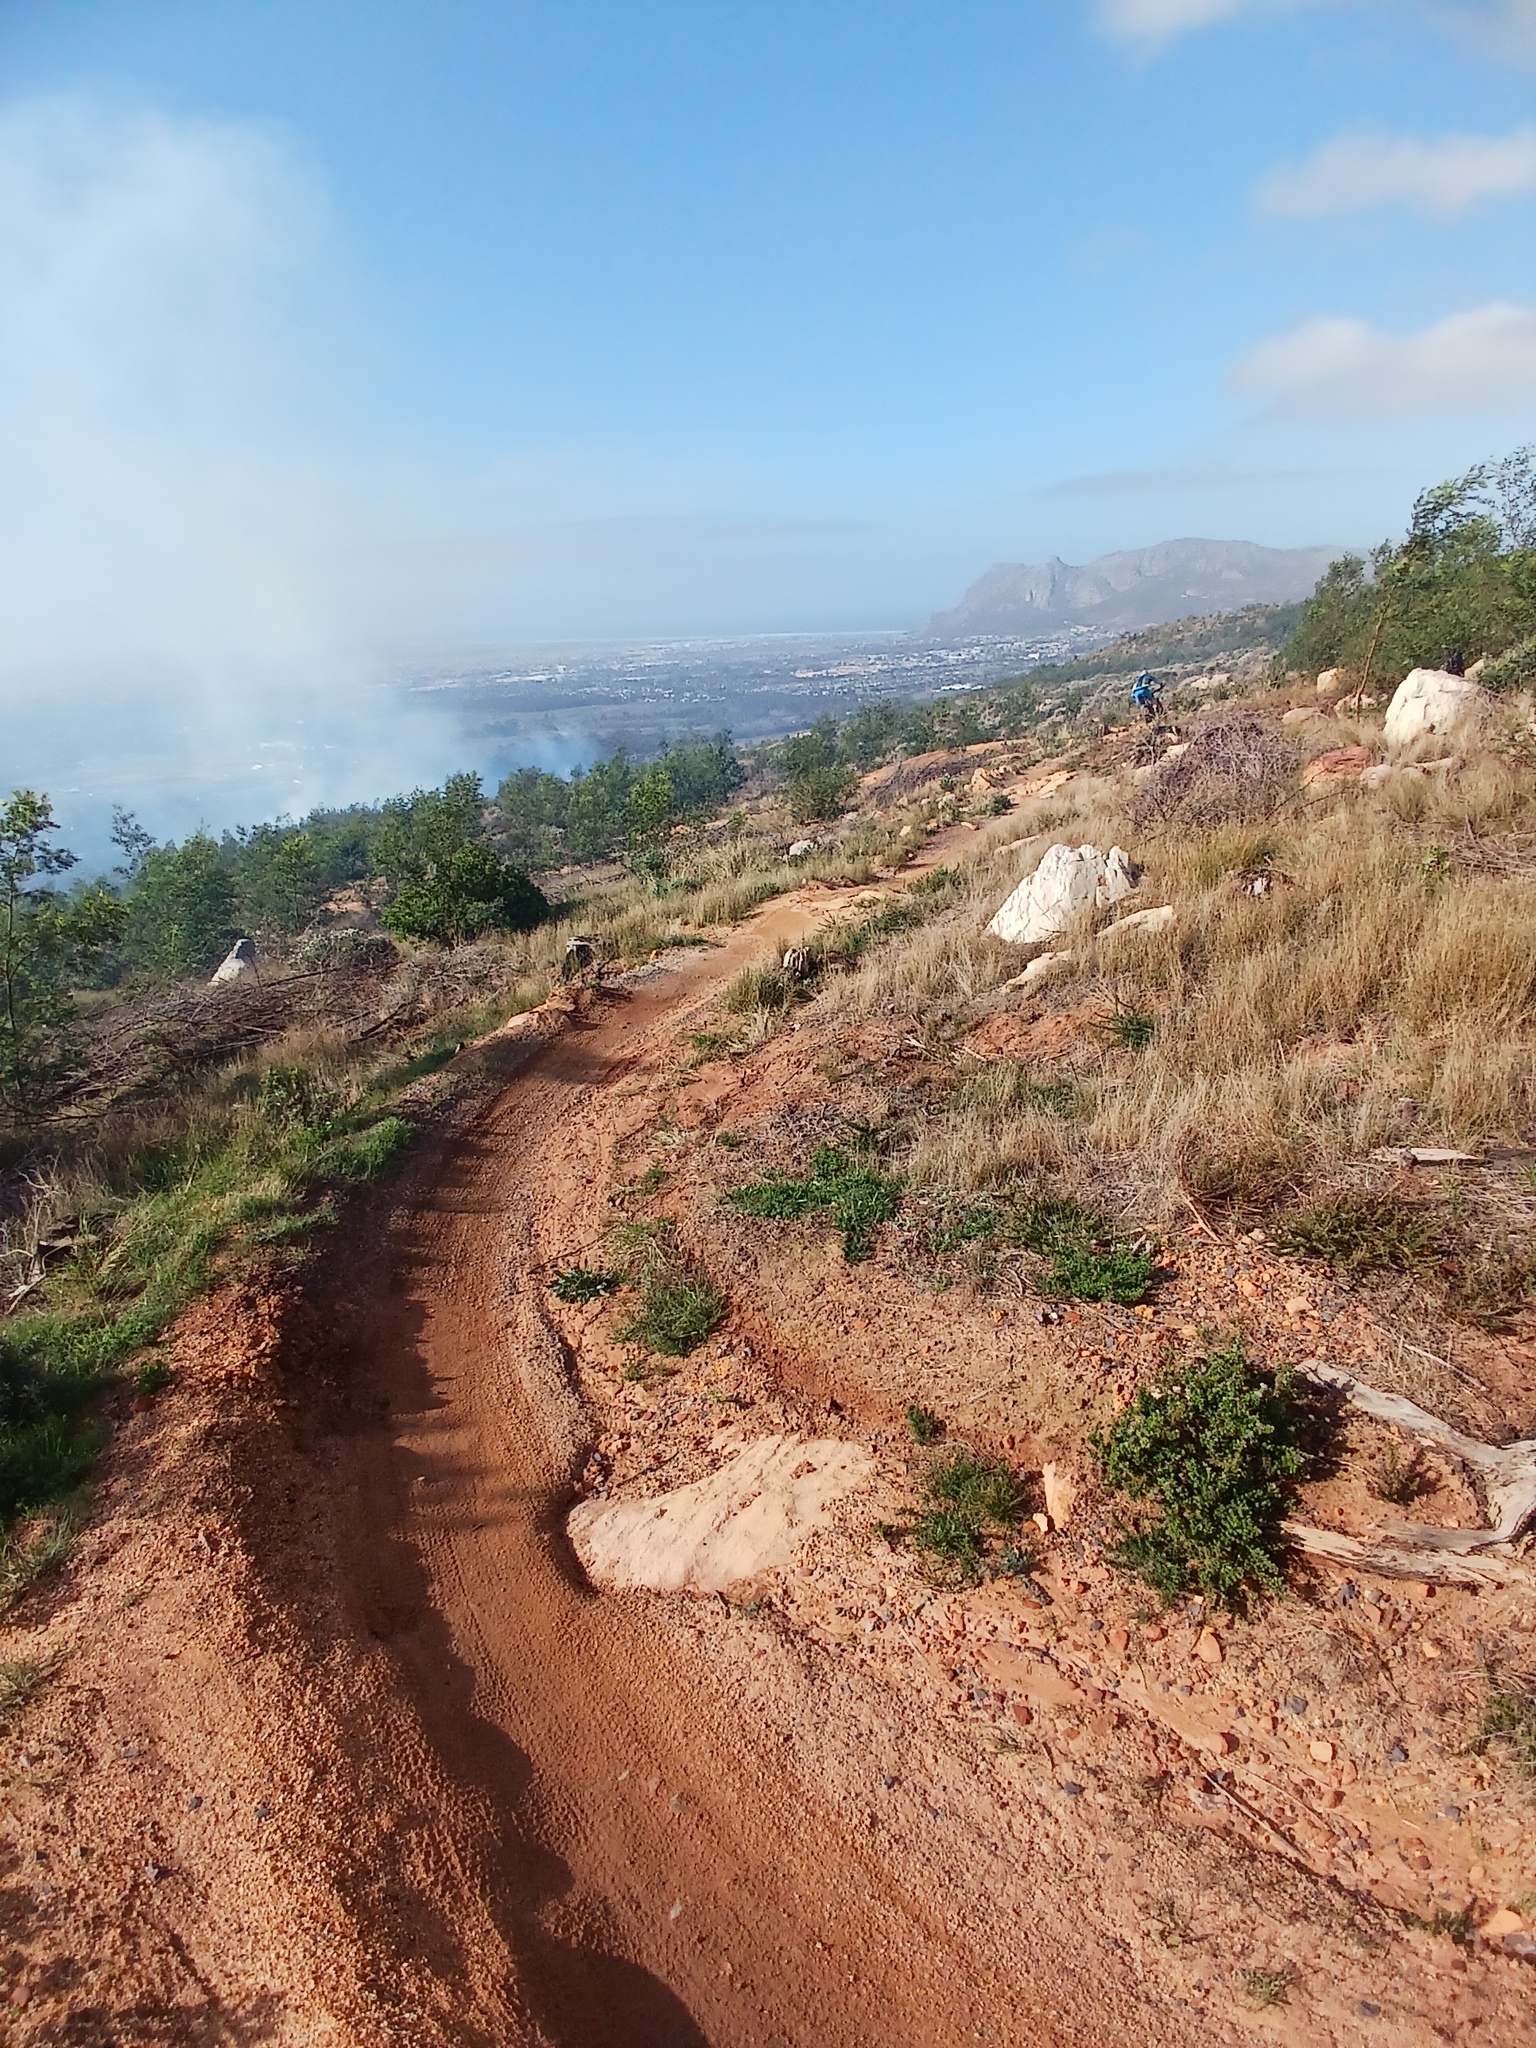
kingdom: Plantae
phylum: Tracheophyta
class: Magnoliopsida
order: Fabales
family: Fabaceae
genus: Acacia
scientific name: Acacia mearnsii
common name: Black wattle
